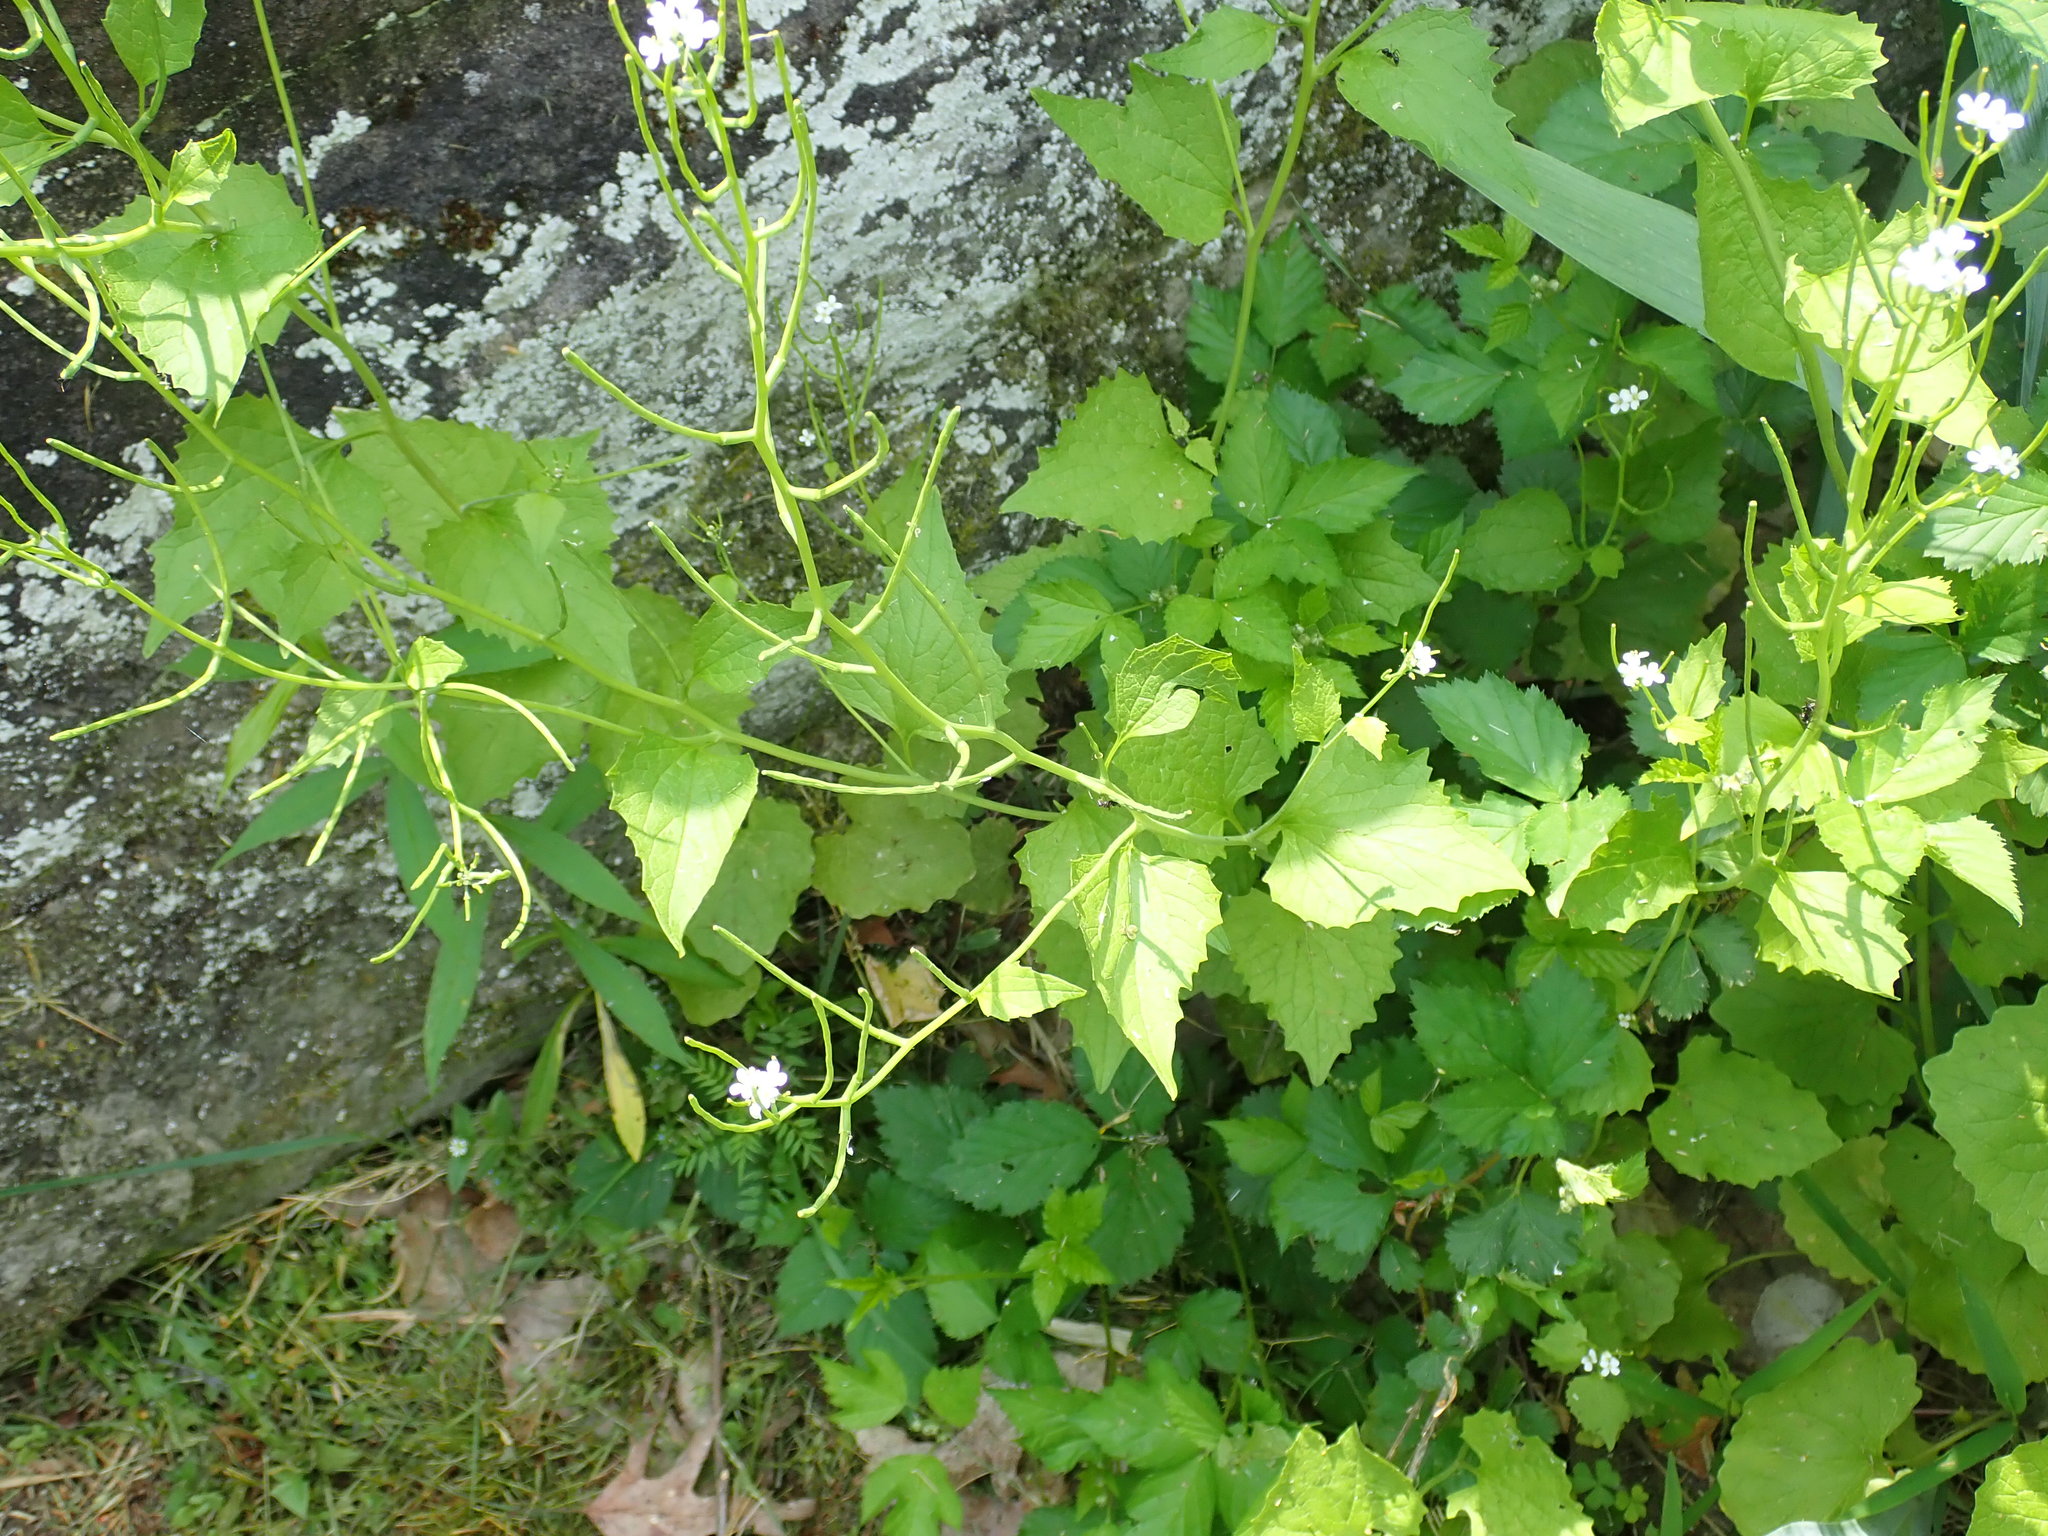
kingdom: Plantae
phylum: Tracheophyta
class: Magnoliopsida
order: Brassicales
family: Brassicaceae
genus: Alliaria
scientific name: Alliaria petiolata
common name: Garlic mustard
